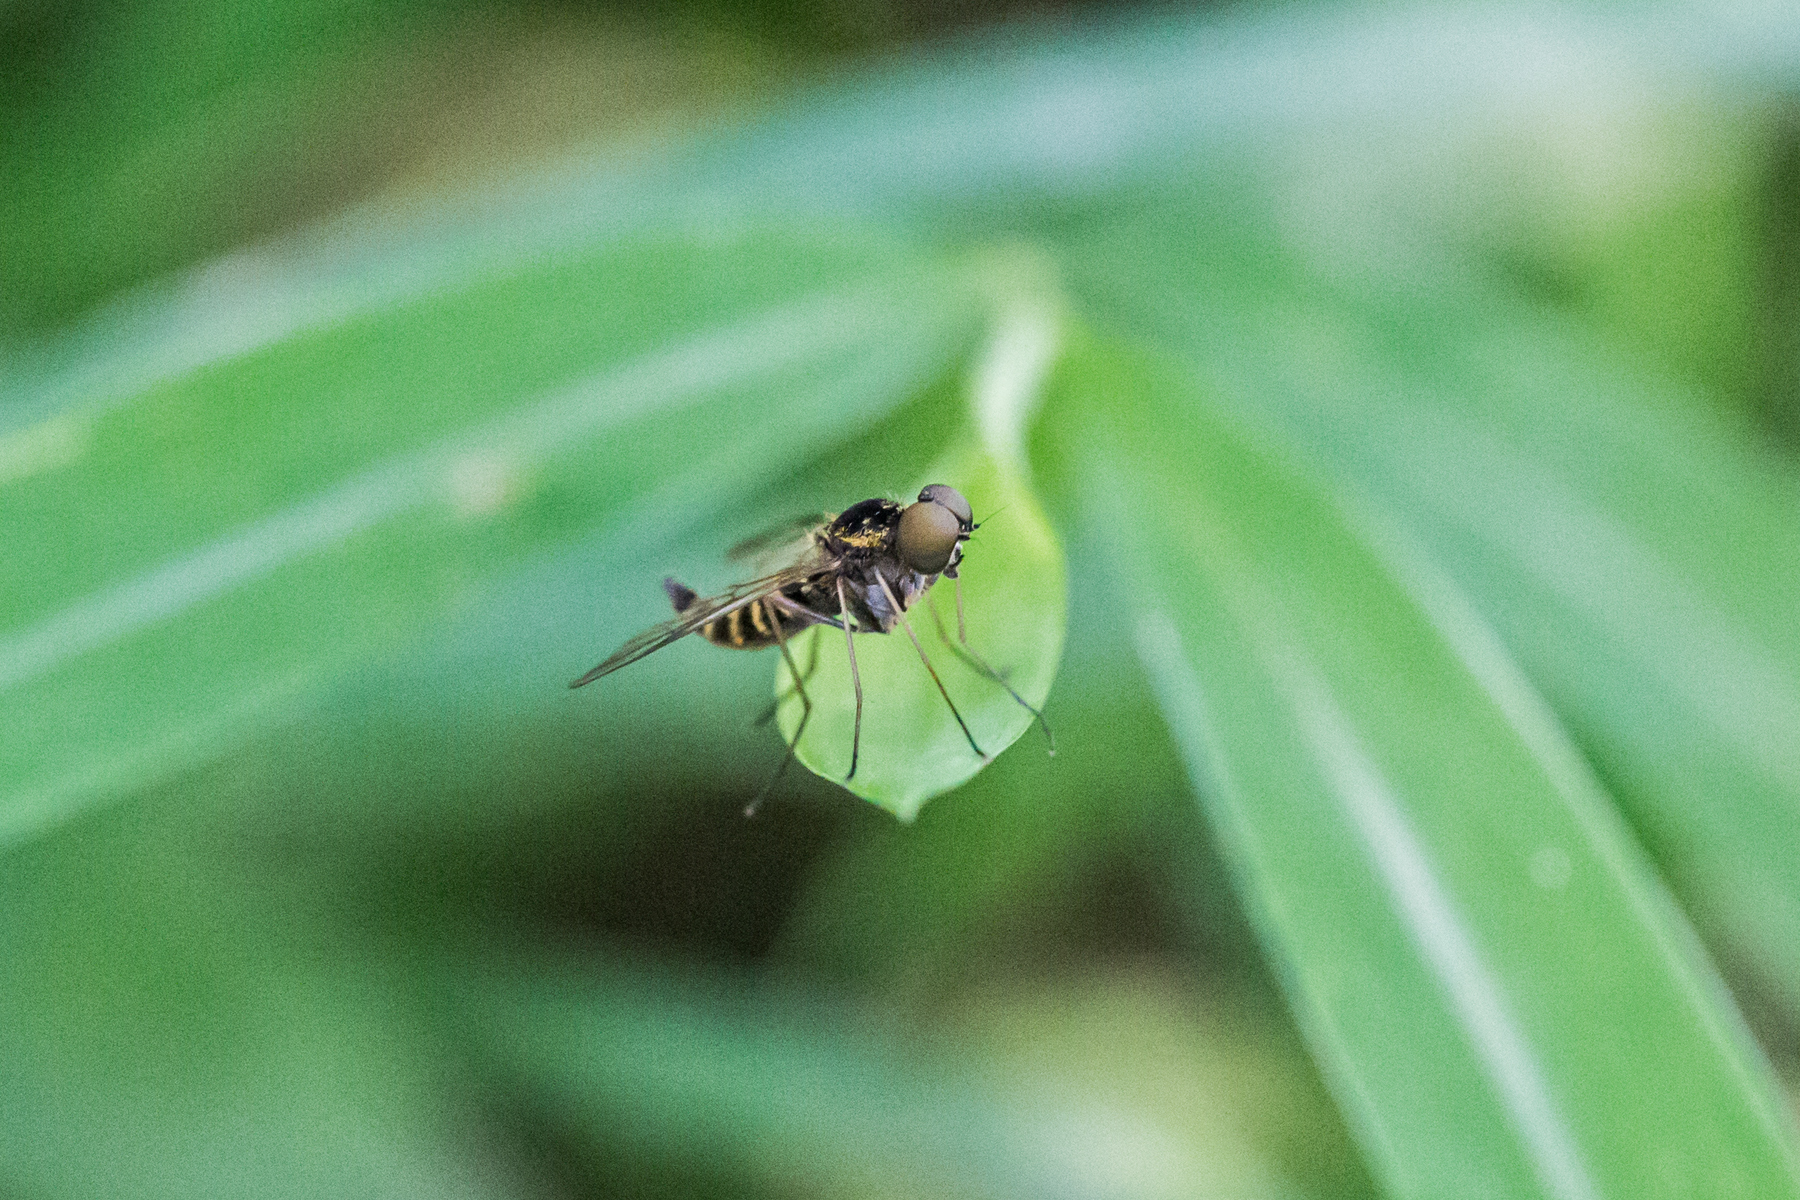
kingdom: Animalia
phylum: Arthropoda
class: Insecta
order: Diptera
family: Rhagionidae
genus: Chrysopilus
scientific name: Chrysopilus fasciatus
